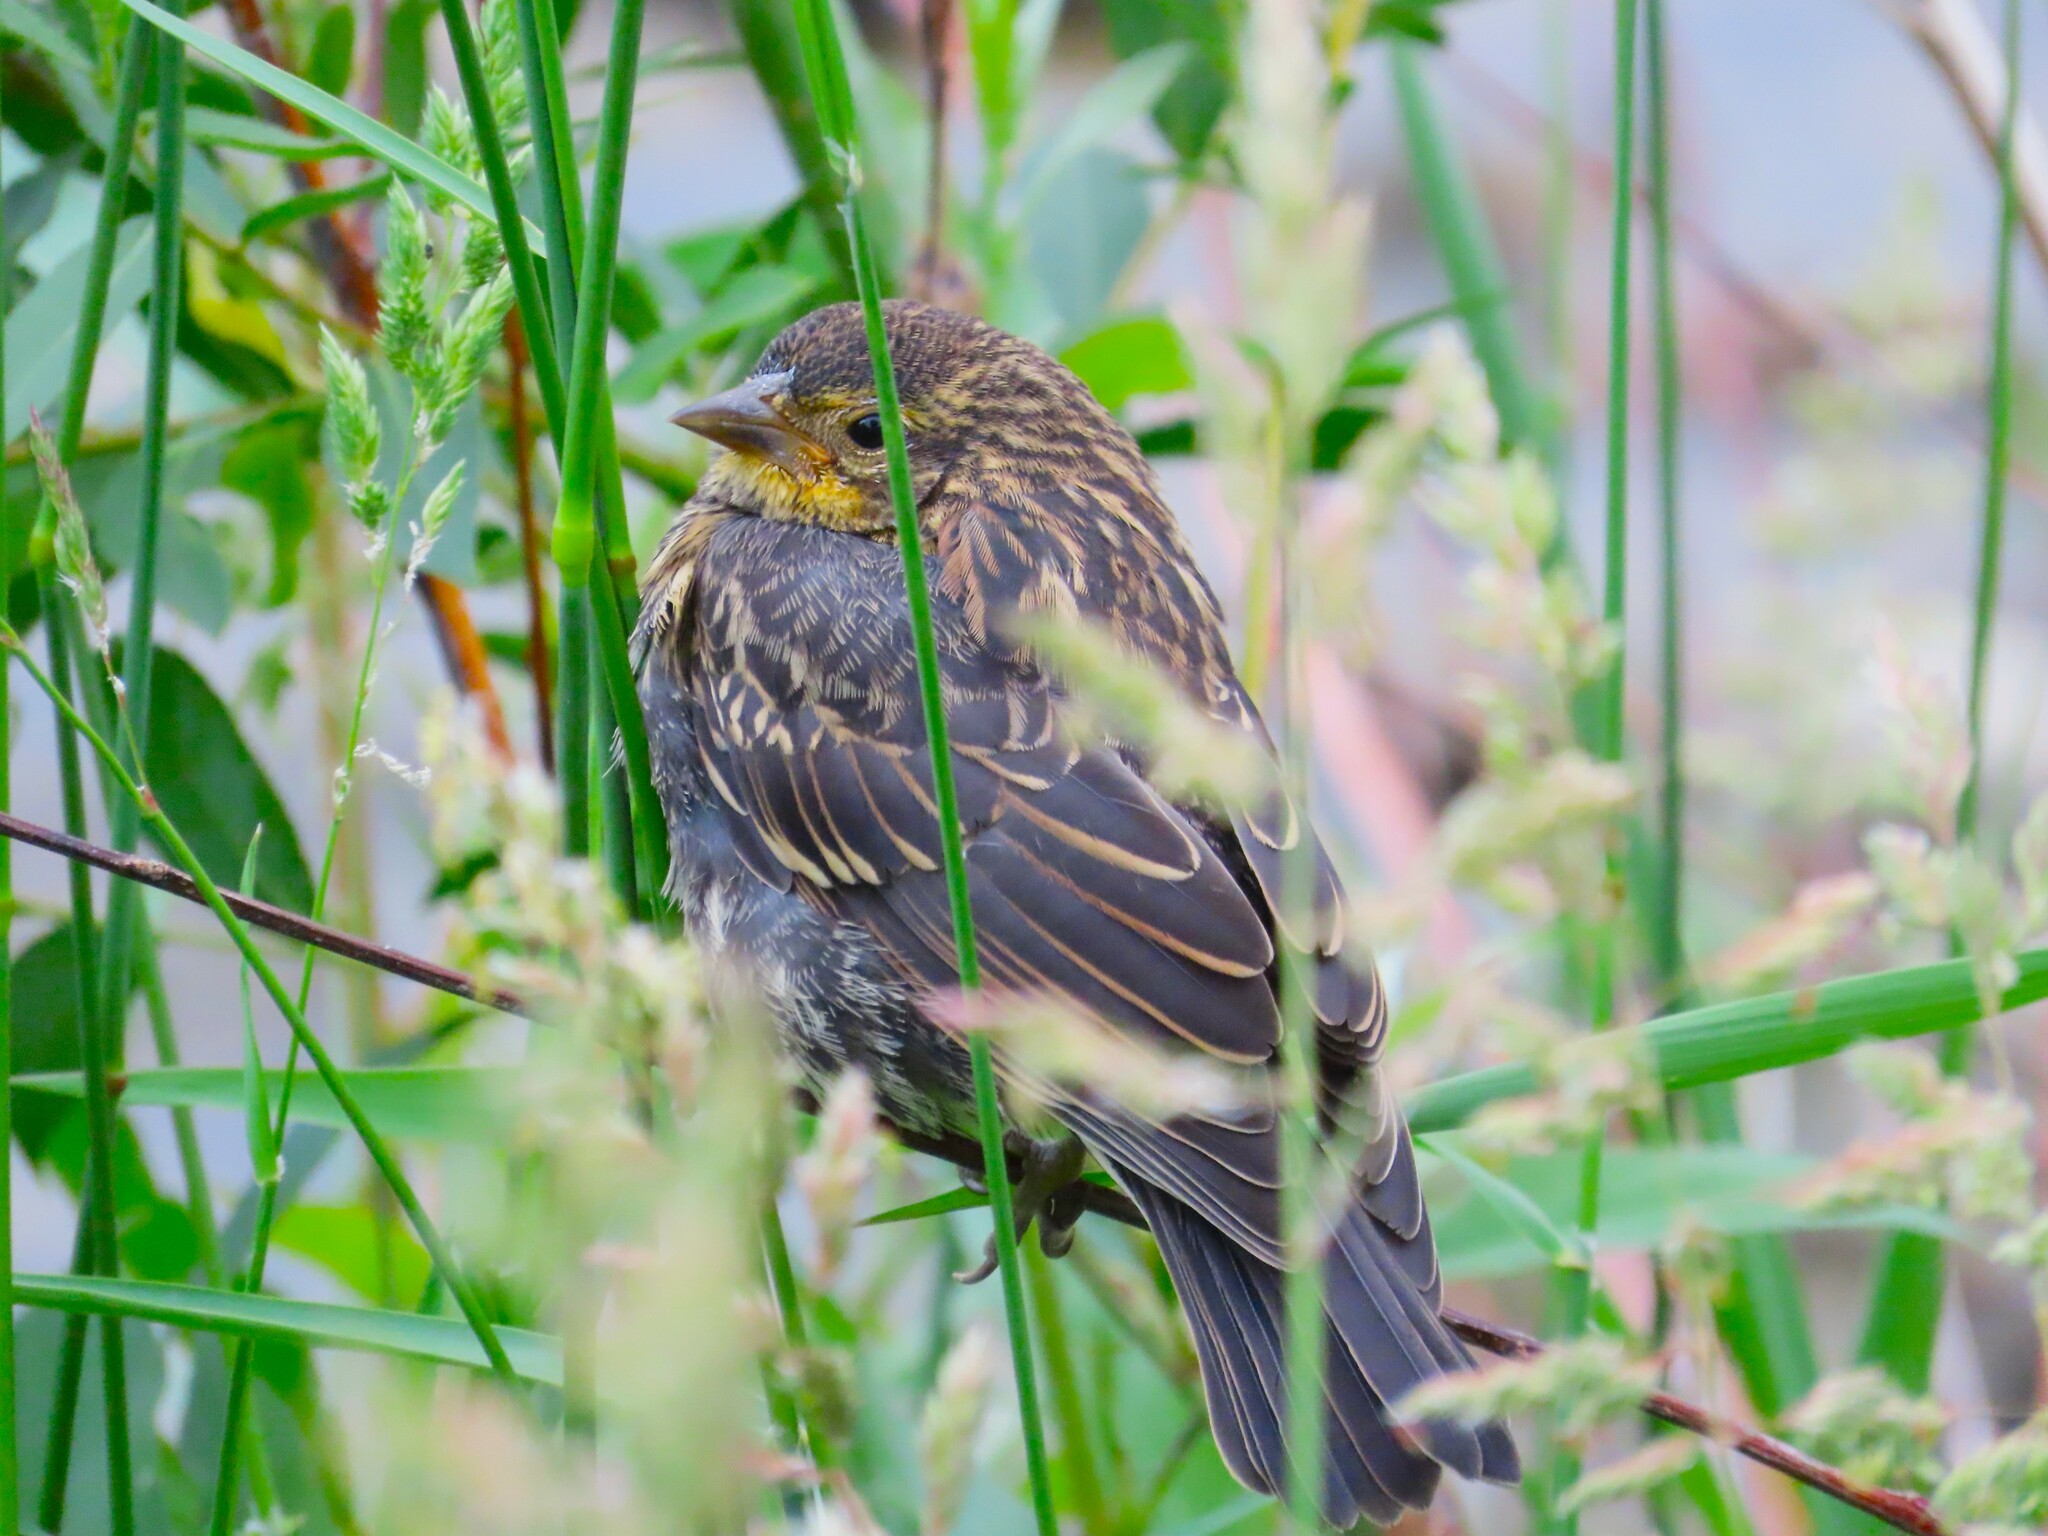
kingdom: Animalia
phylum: Chordata
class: Aves
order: Passeriformes
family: Icteridae
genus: Agelaius
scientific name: Agelaius phoeniceus
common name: Red-winged blackbird
